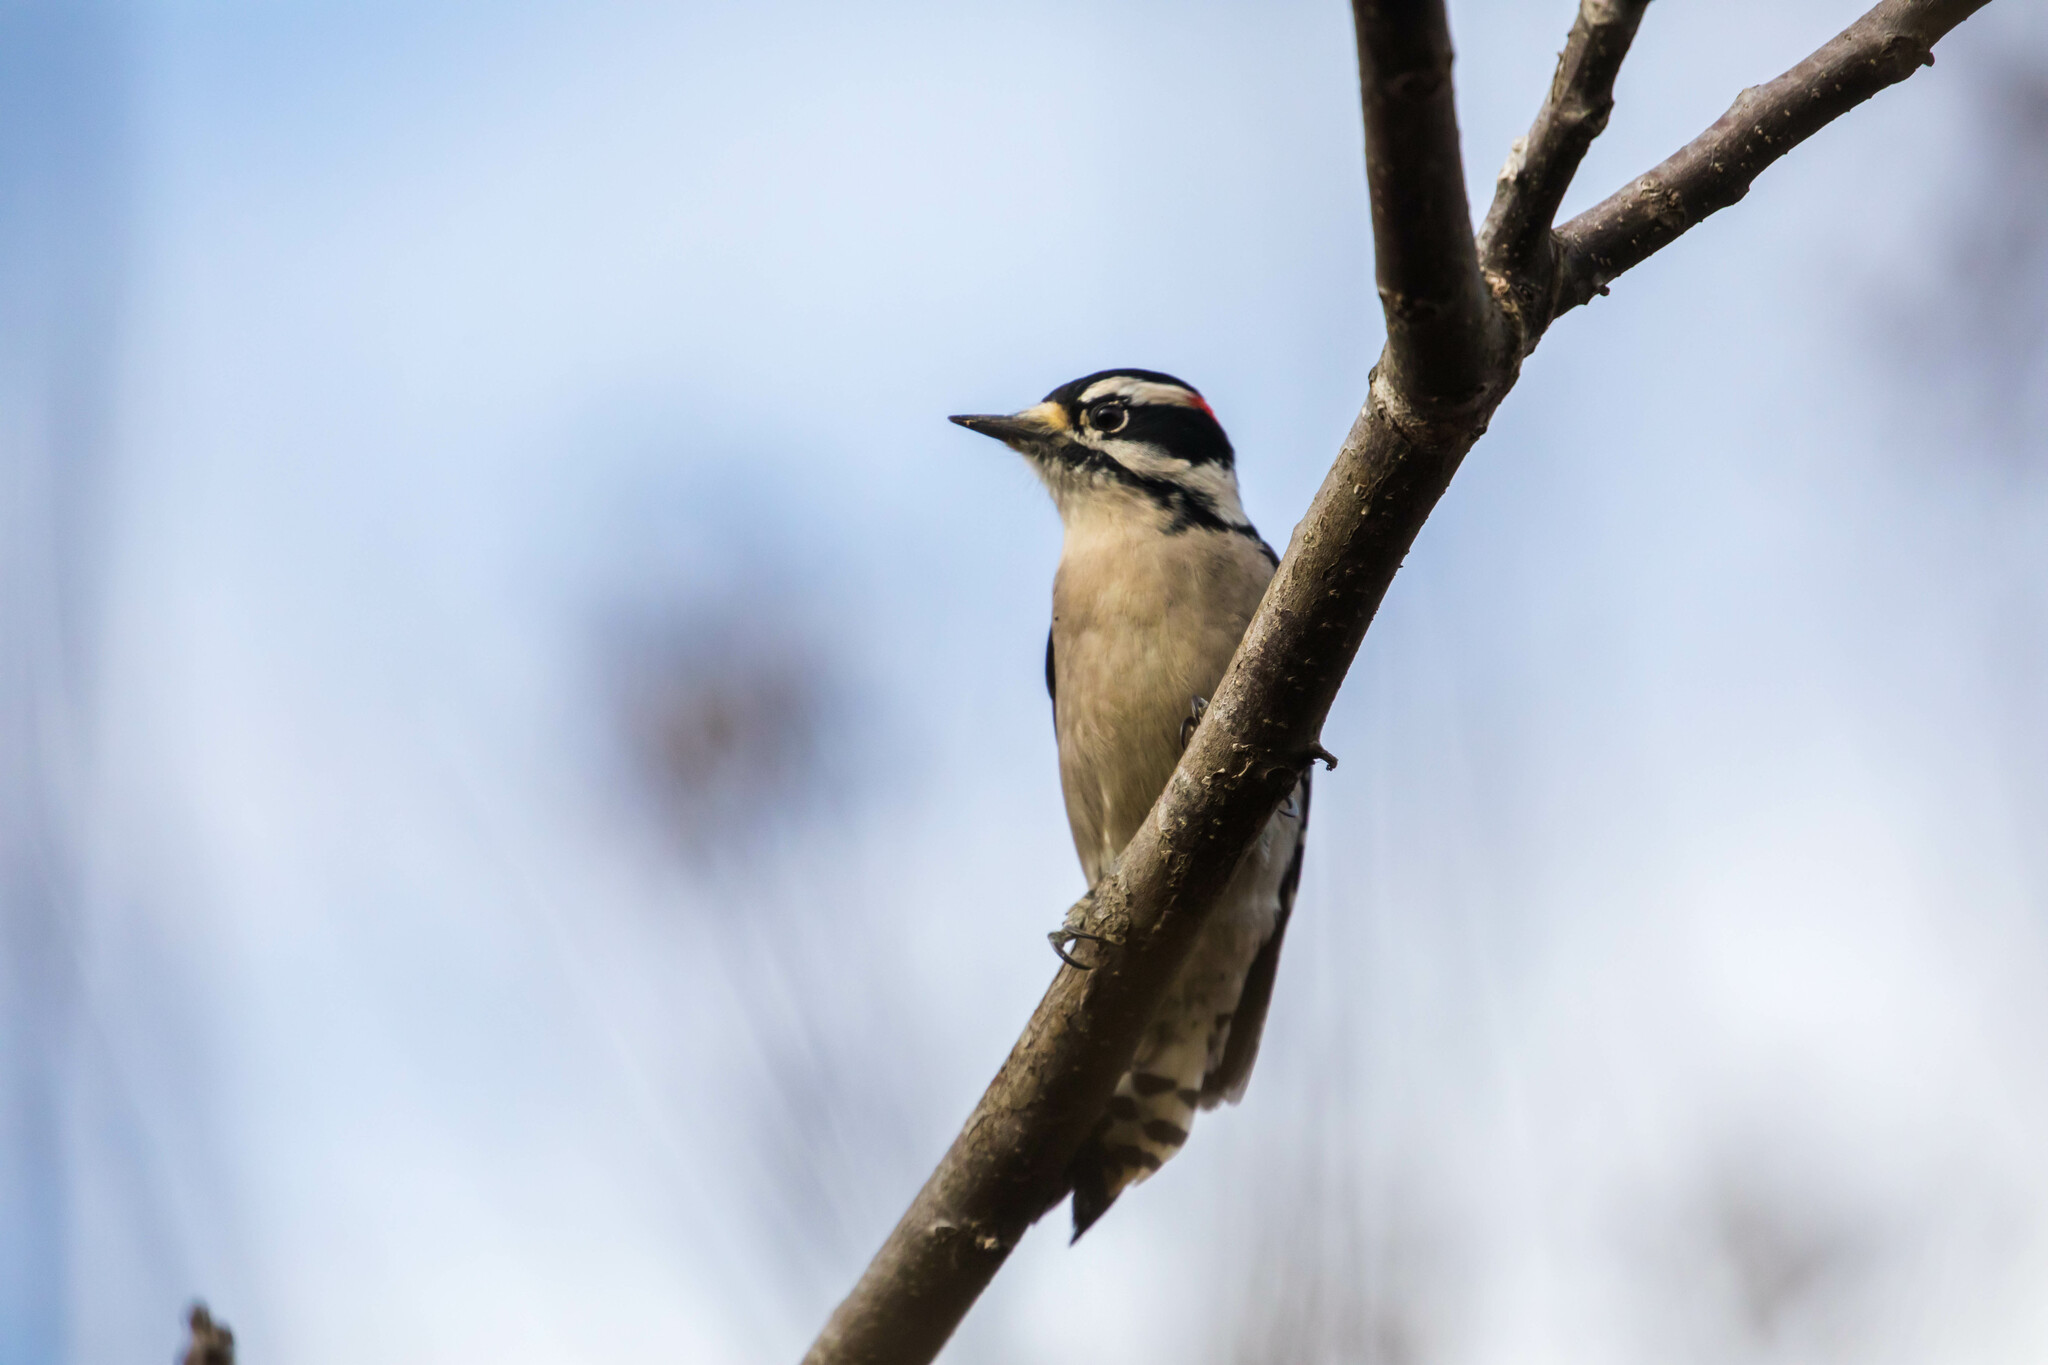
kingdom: Animalia
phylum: Chordata
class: Aves
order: Piciformes
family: Picidae
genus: Dryobates
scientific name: Dryobates pubescens
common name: Downy woodpecker
